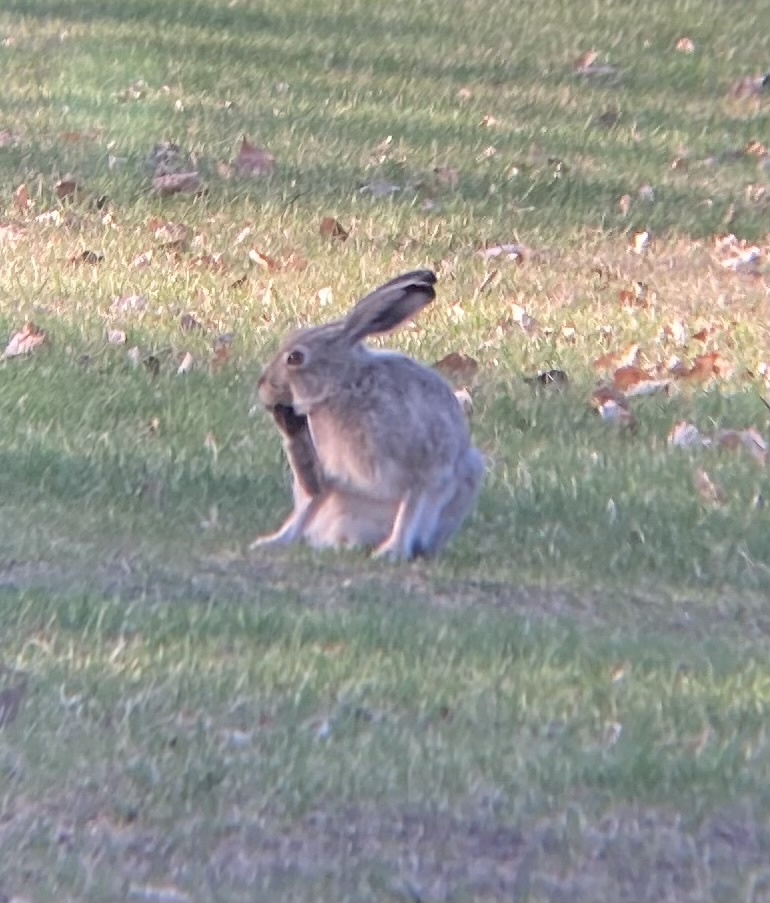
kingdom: Animalia
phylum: Chordata
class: Mammalia
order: Lagomorpha
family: Leporidae
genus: Lepus
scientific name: Lepus townsendii
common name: White-tailed jackrabbit
